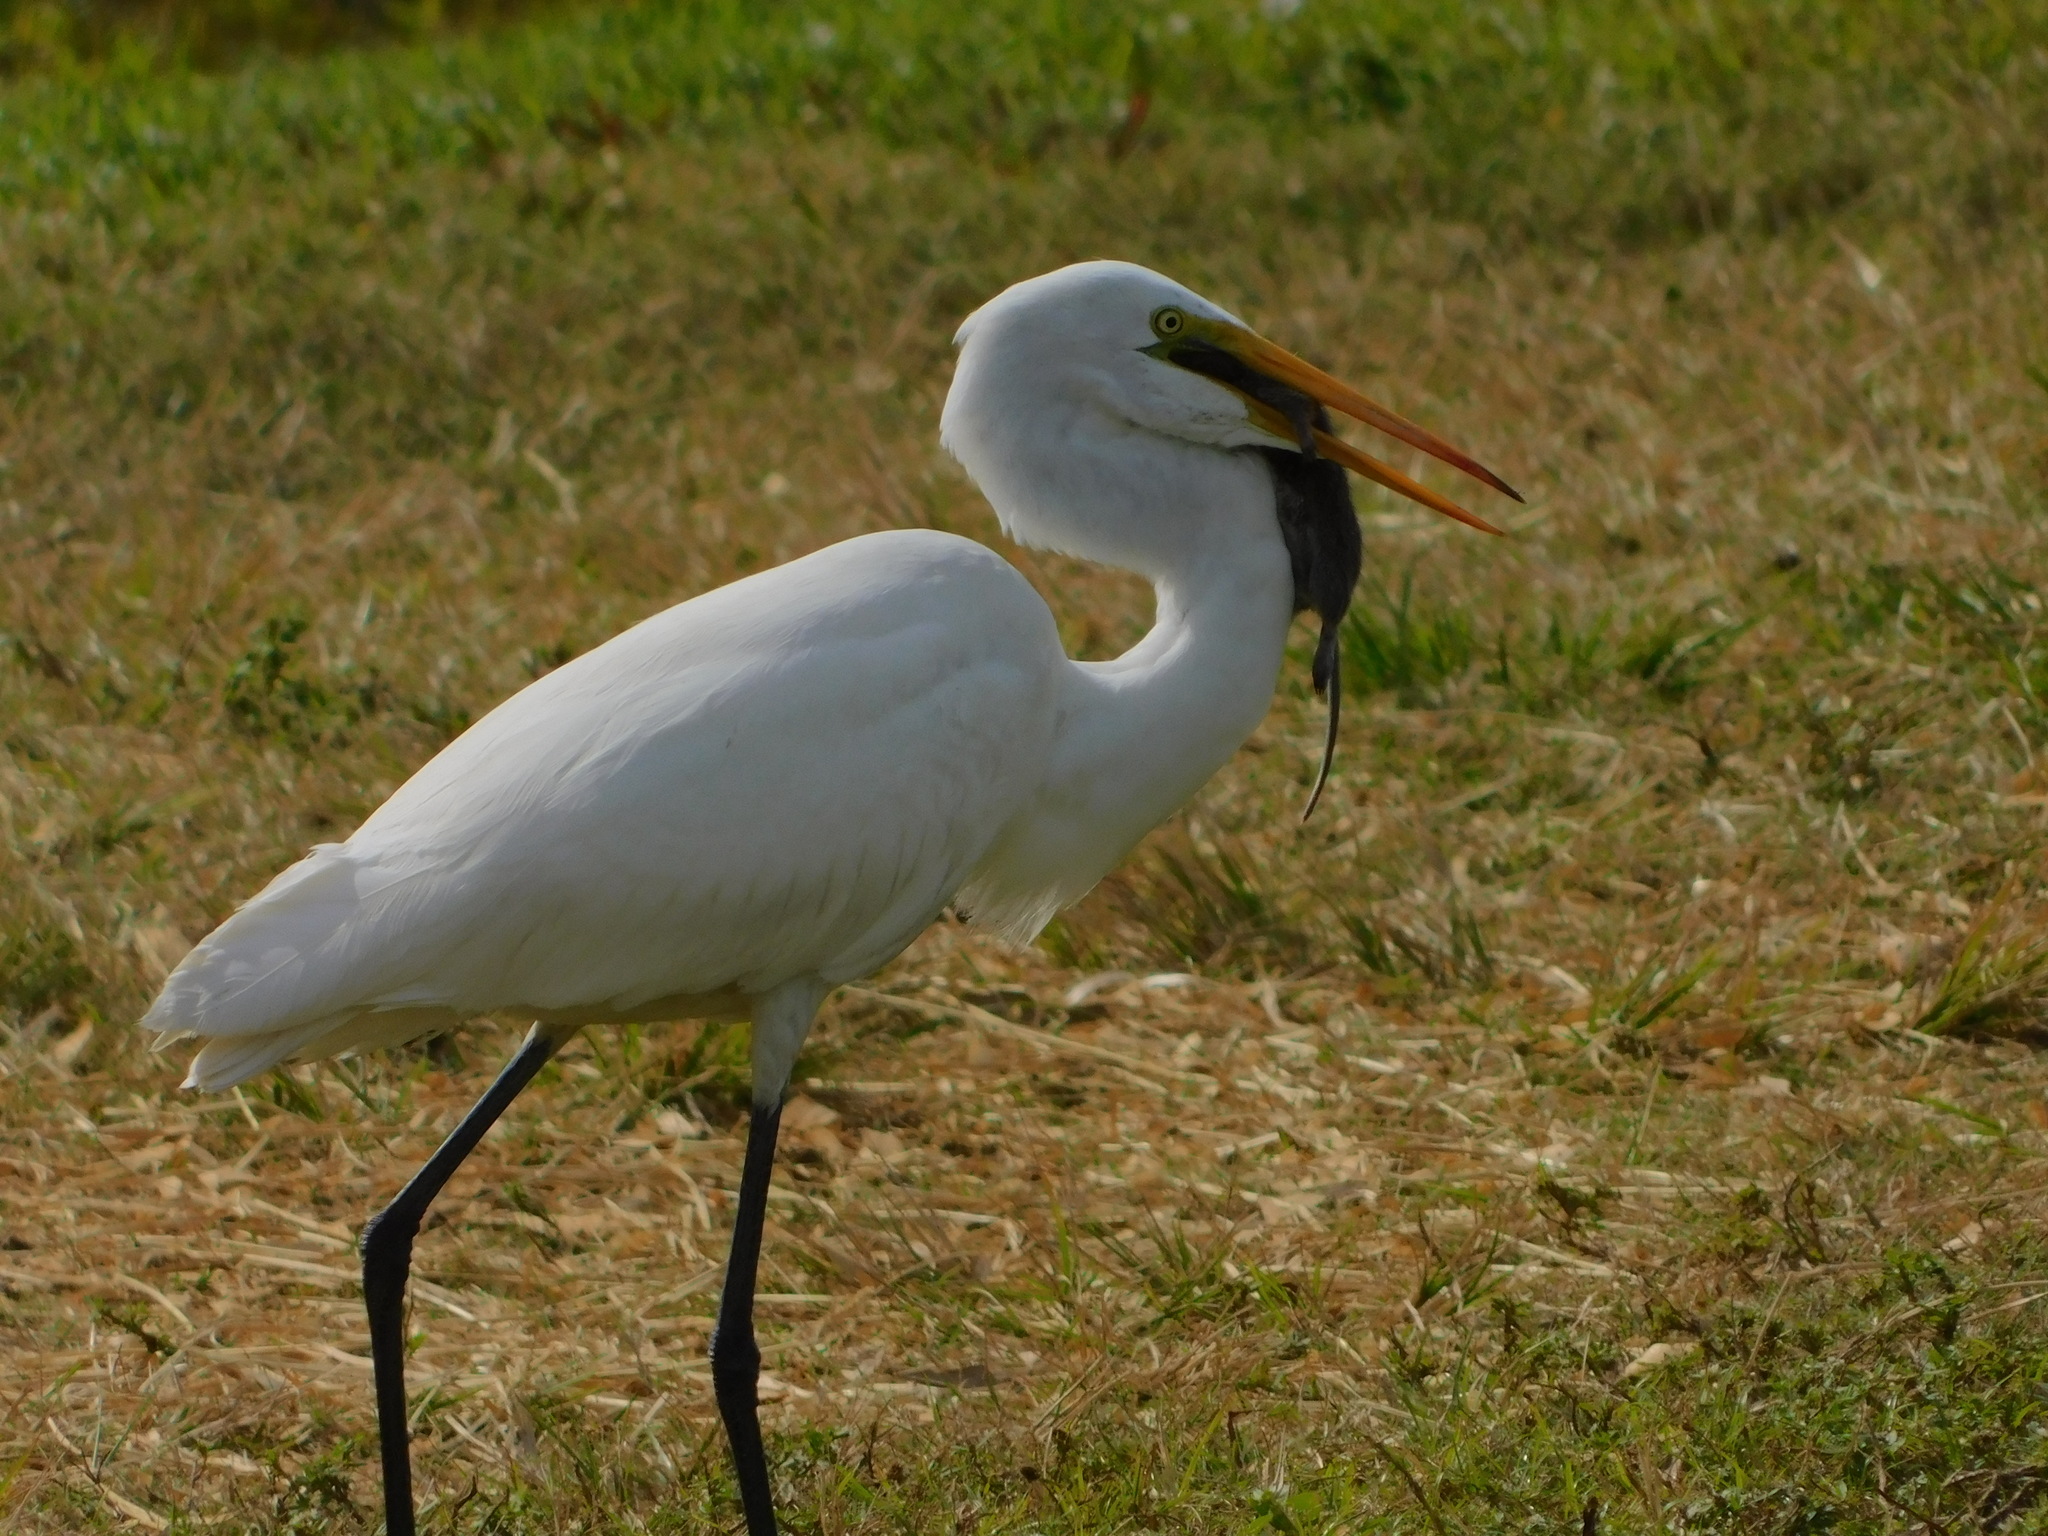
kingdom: Animalia
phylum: Chordata
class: Aves
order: Pelecaniformes
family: Ardeidae
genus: Ardea
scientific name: Ardea alba
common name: Great egret
